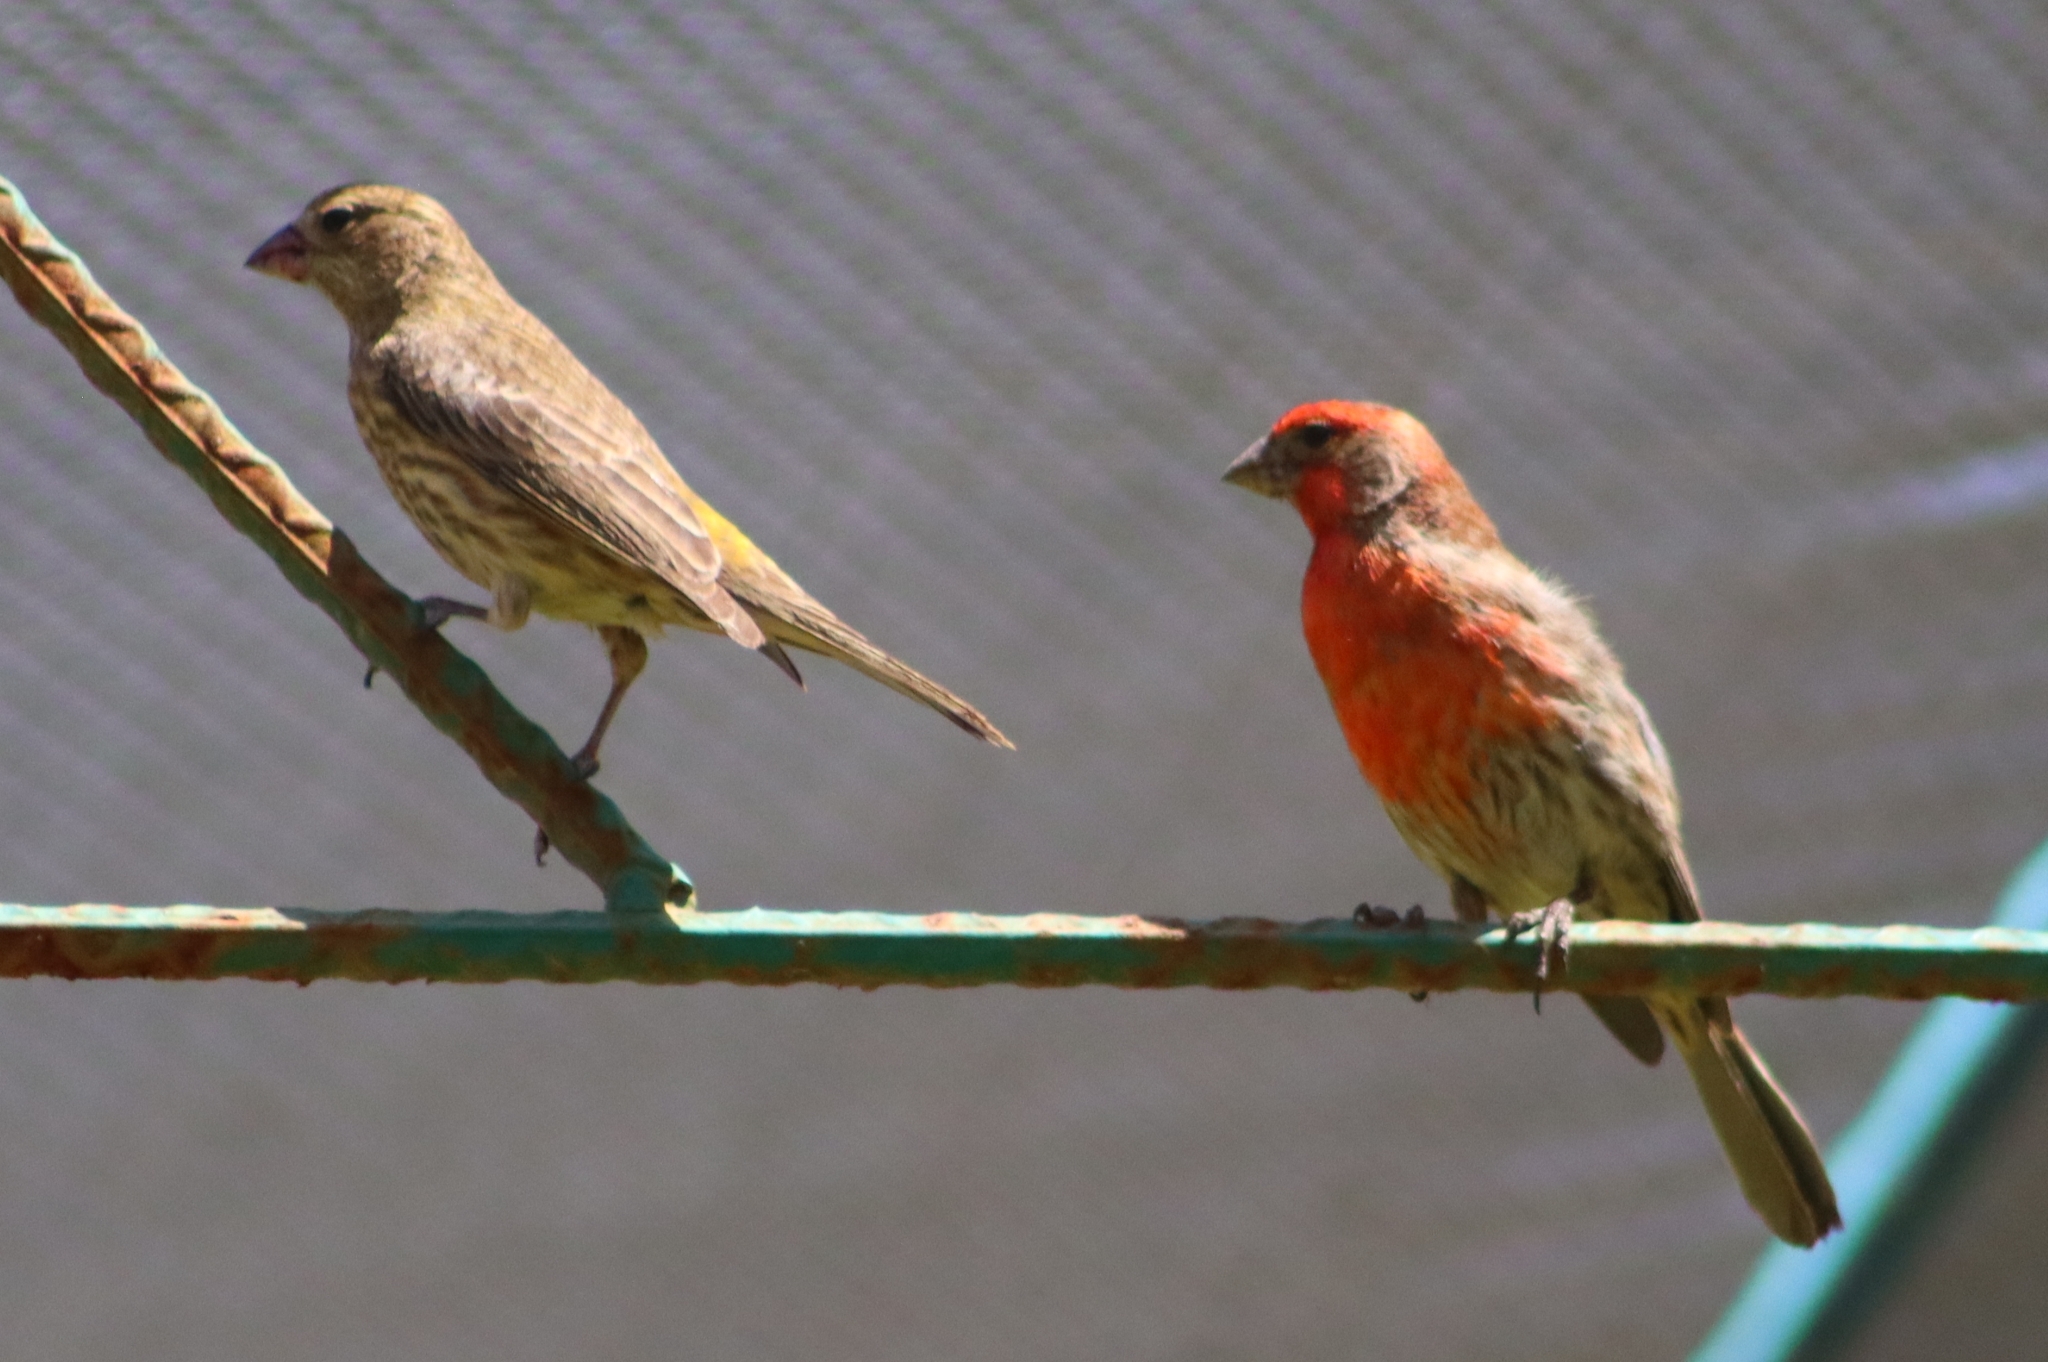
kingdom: Animalia
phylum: Chordata
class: Aves
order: Passeriformes
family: Fringillidae
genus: Haemorhous
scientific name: Haemorhous mexicanus
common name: House finch
